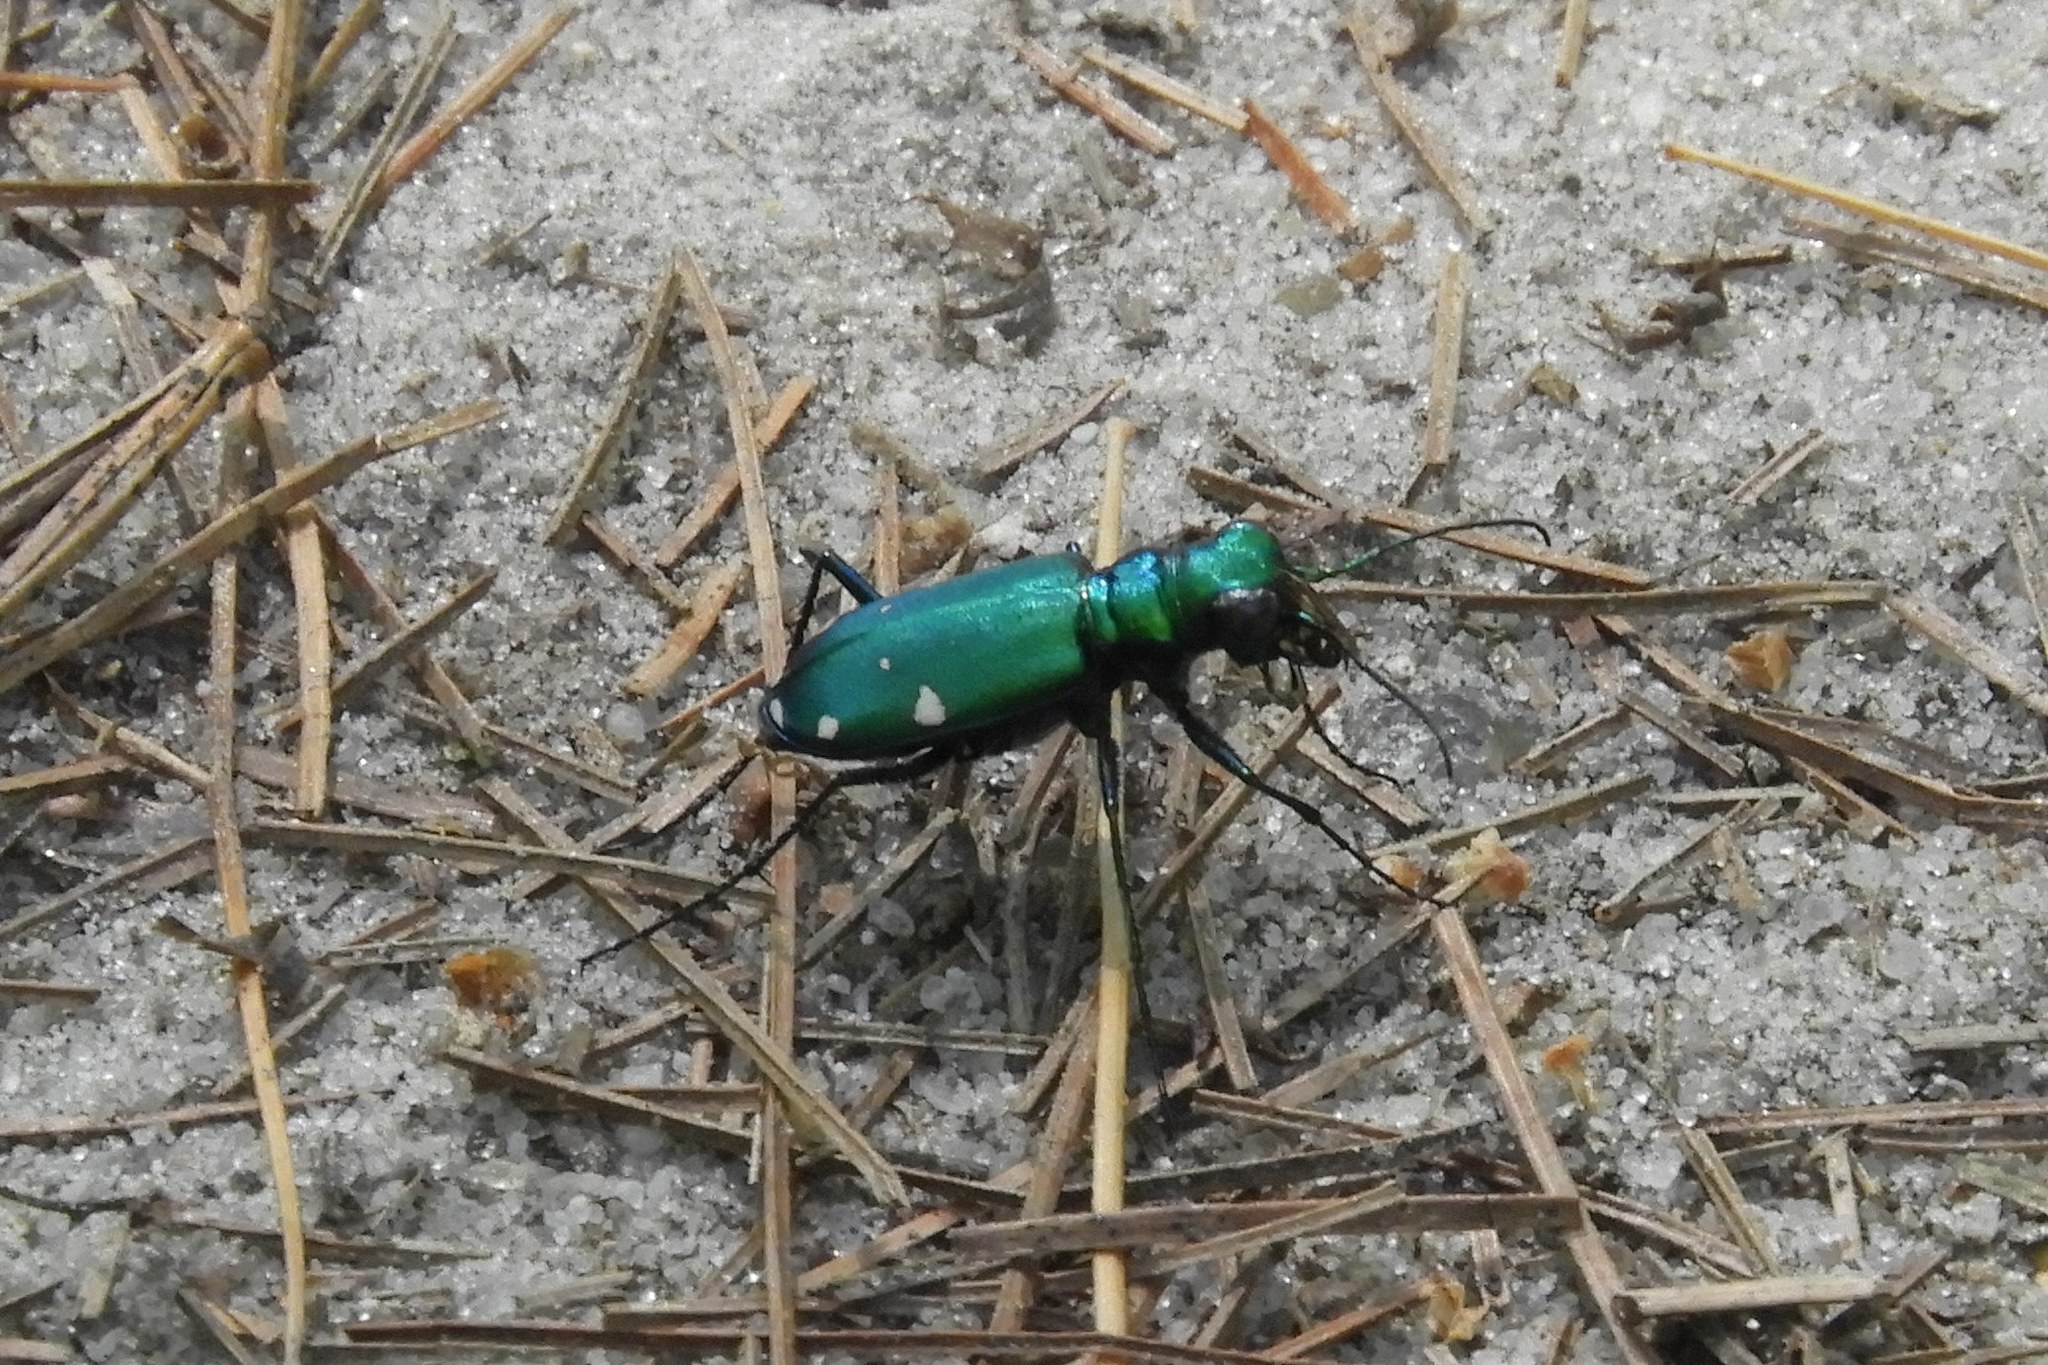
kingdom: Animalia
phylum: Arthropoda
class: Insecta
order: Coleoptera
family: Carabidae
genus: Cicindela
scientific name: Cicindela sexguttata
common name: Six-spotted tiger beetle
